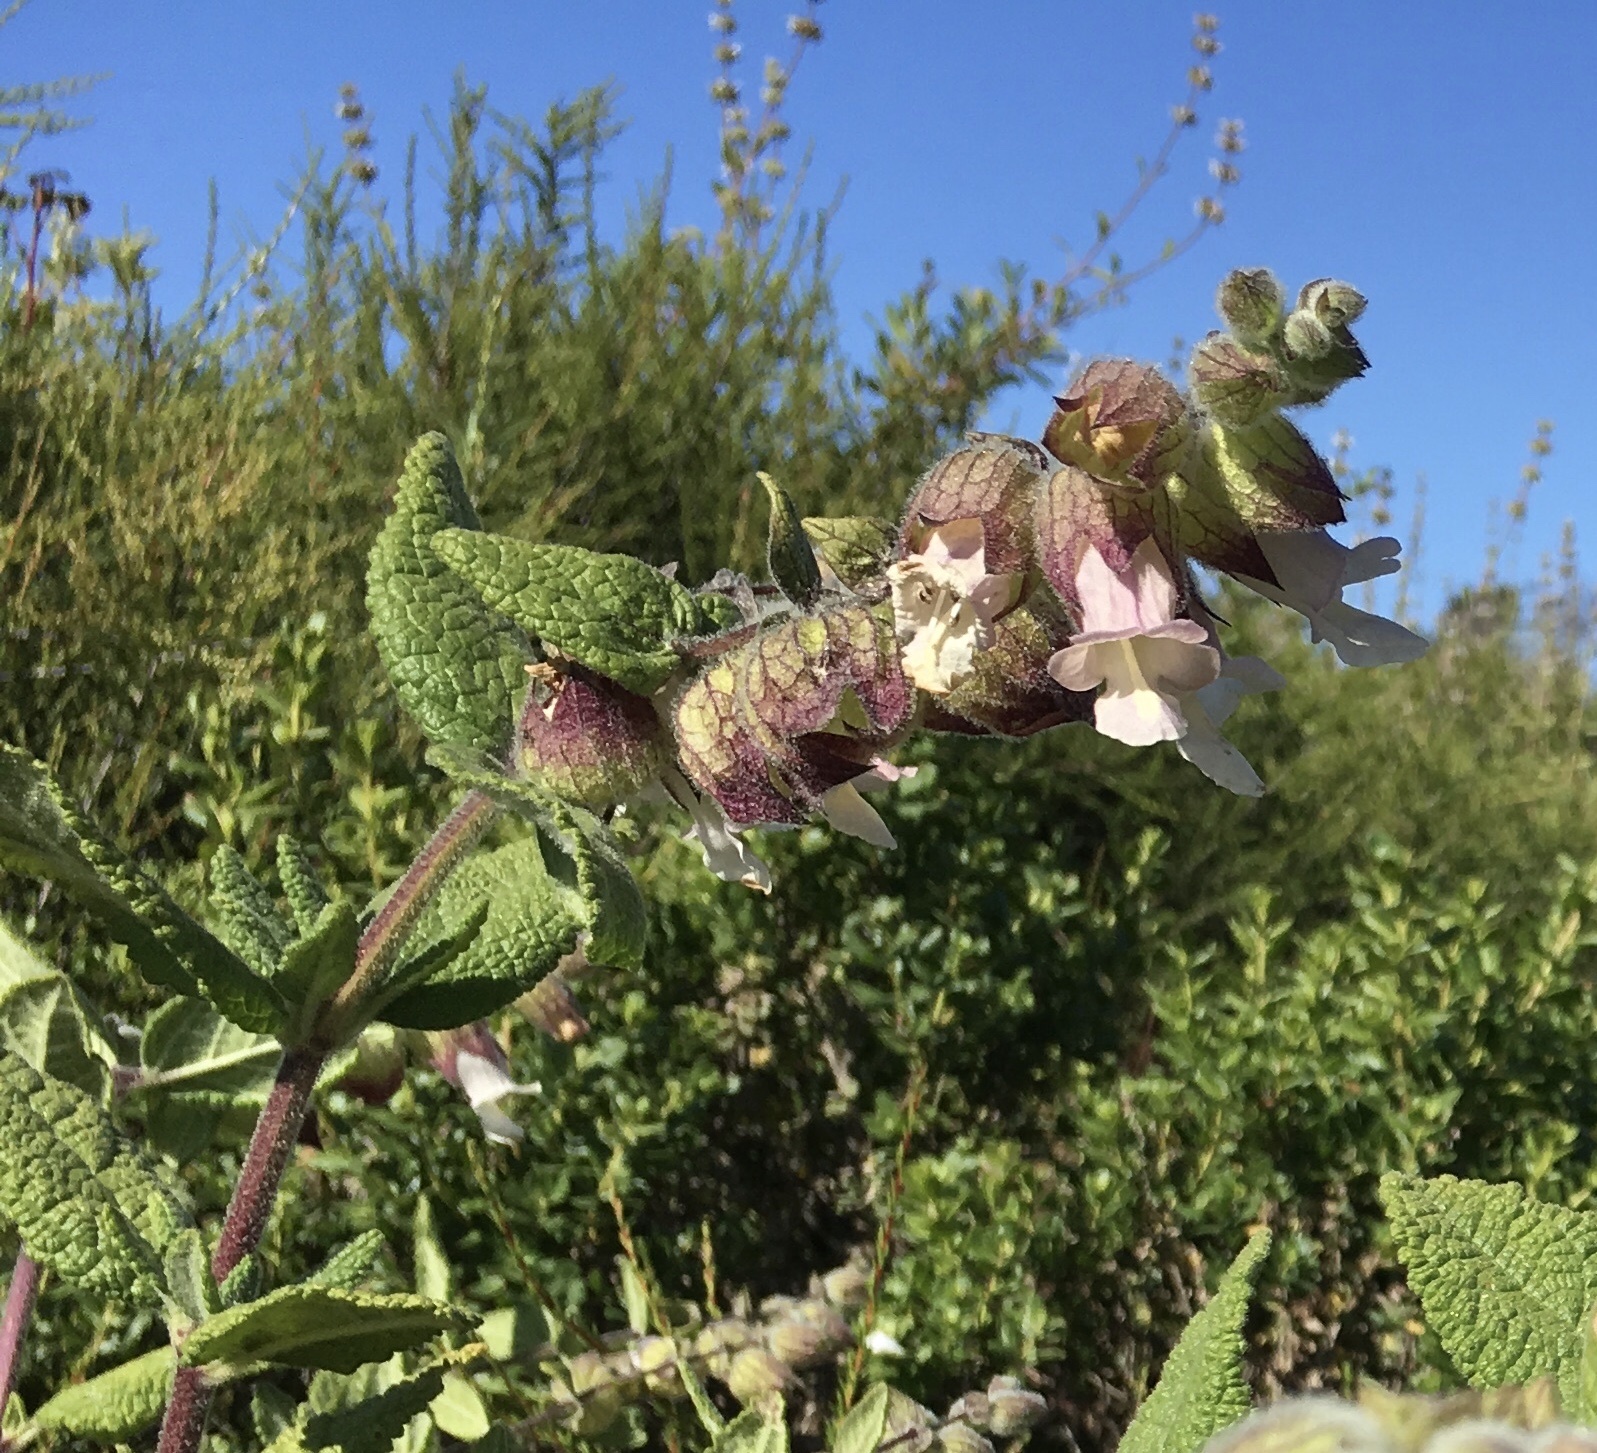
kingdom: Plantae
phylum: Tracheophyta
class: Magnoliopsida
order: Lamiales
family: Lamiaceae
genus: Lepechinia
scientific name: Lepechinia calycina
